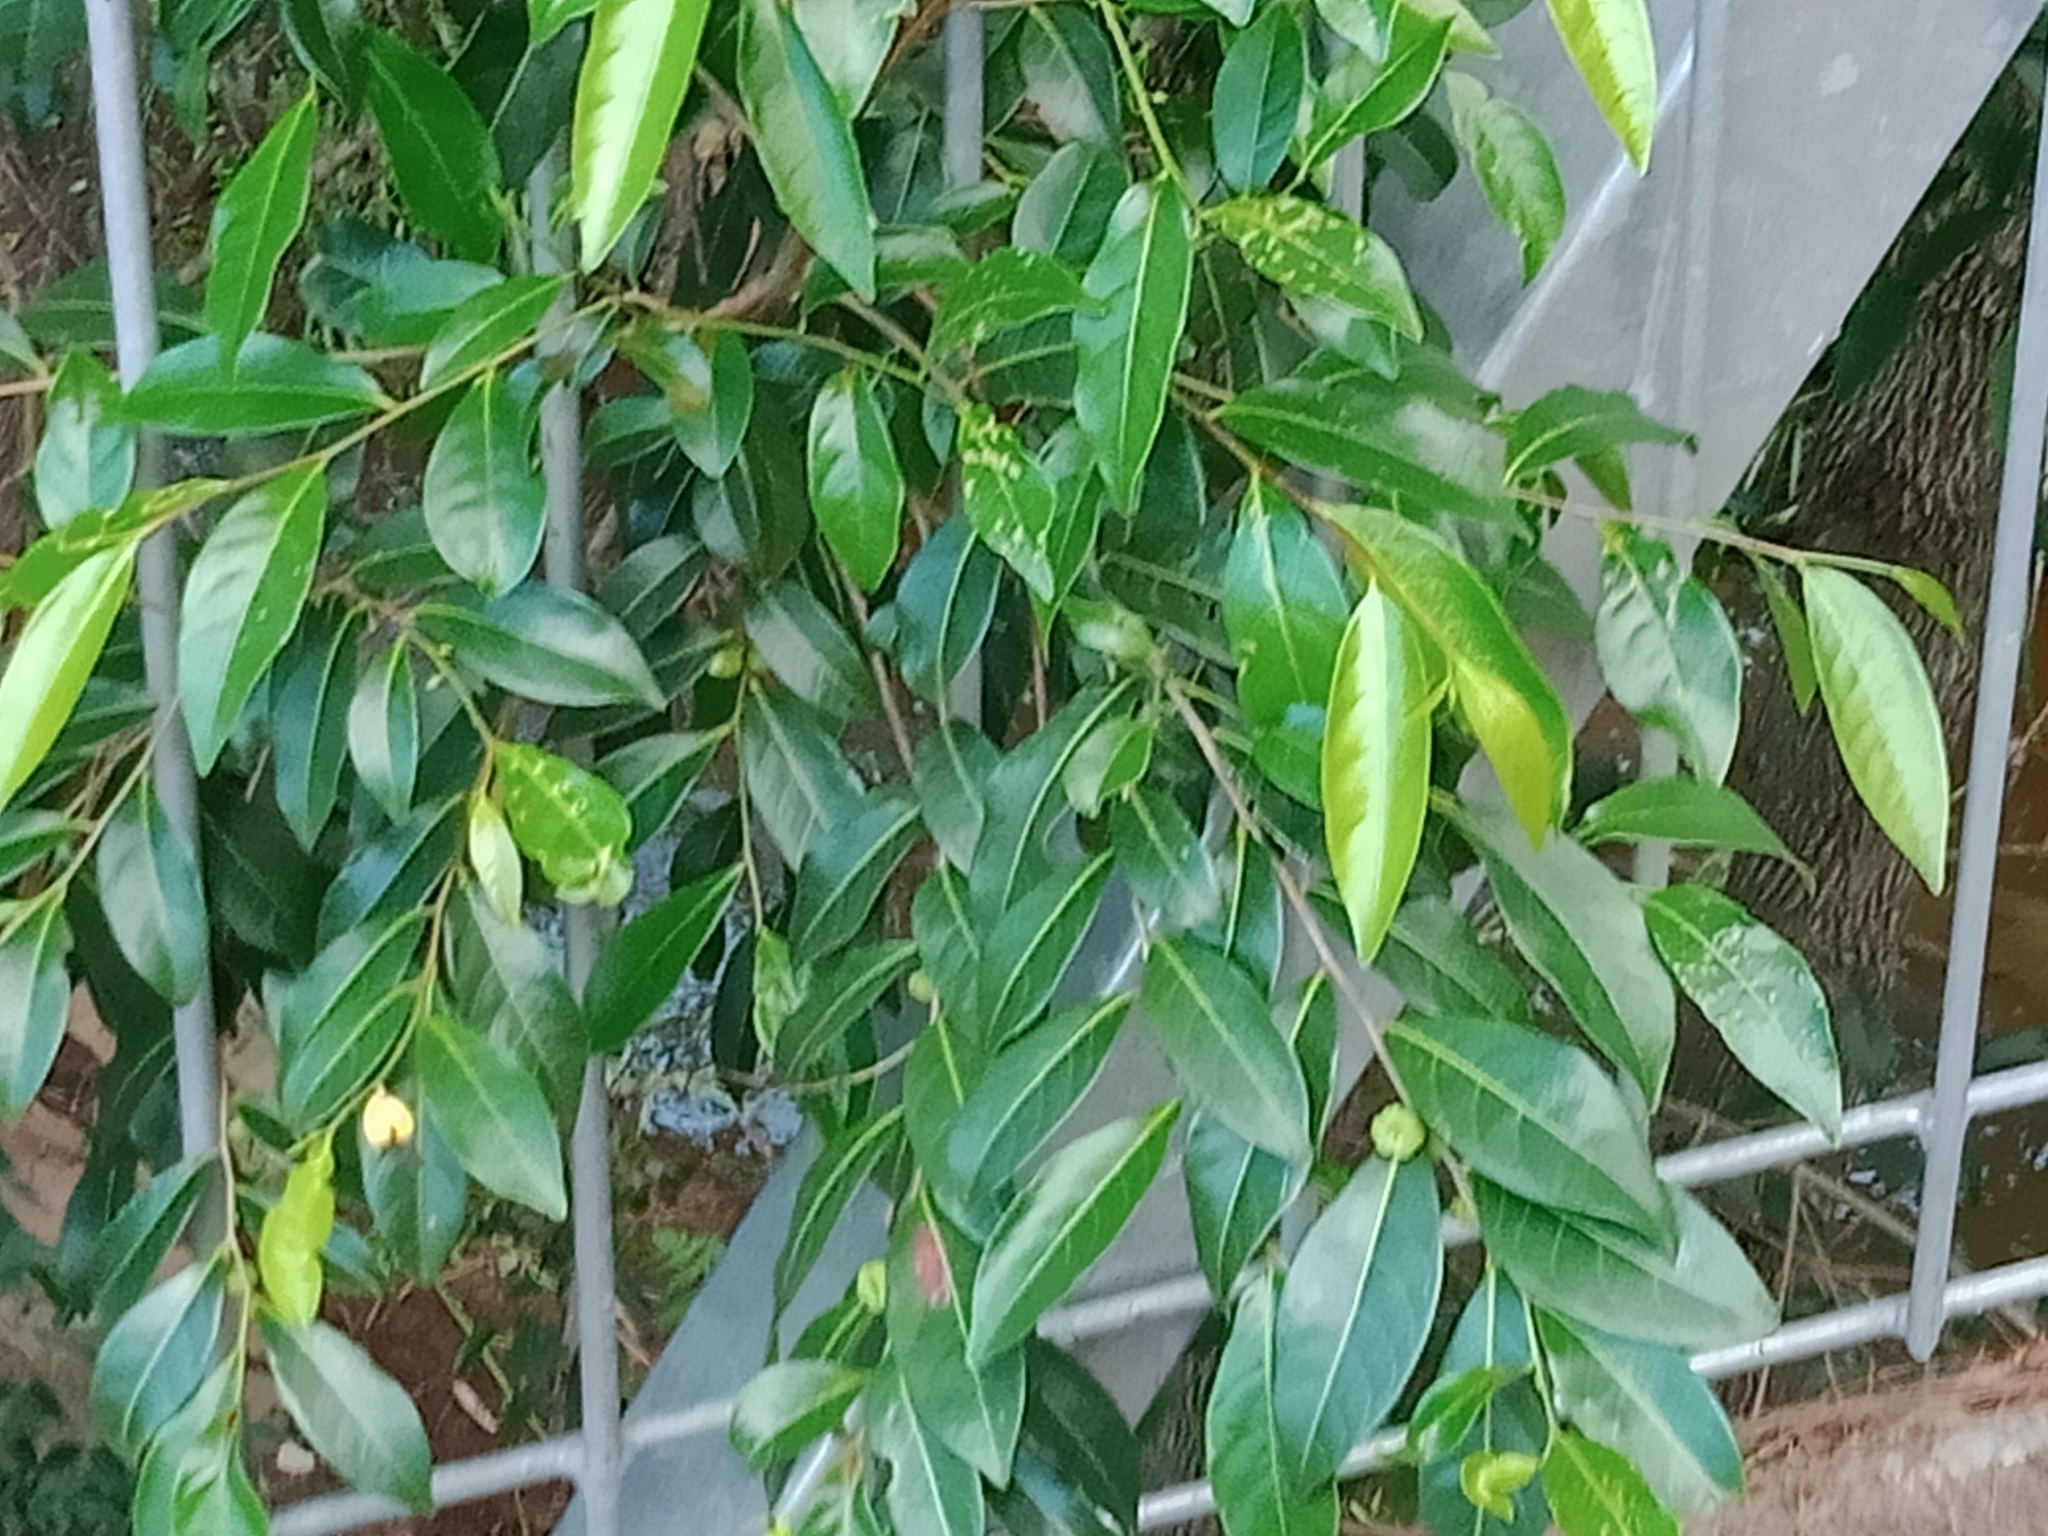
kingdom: Plantae
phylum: Tracheophyta
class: Magnoliopsida
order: Malpighiales
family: Phyllanthaceae
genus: Glochidion
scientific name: Glochidion ferdinandi
